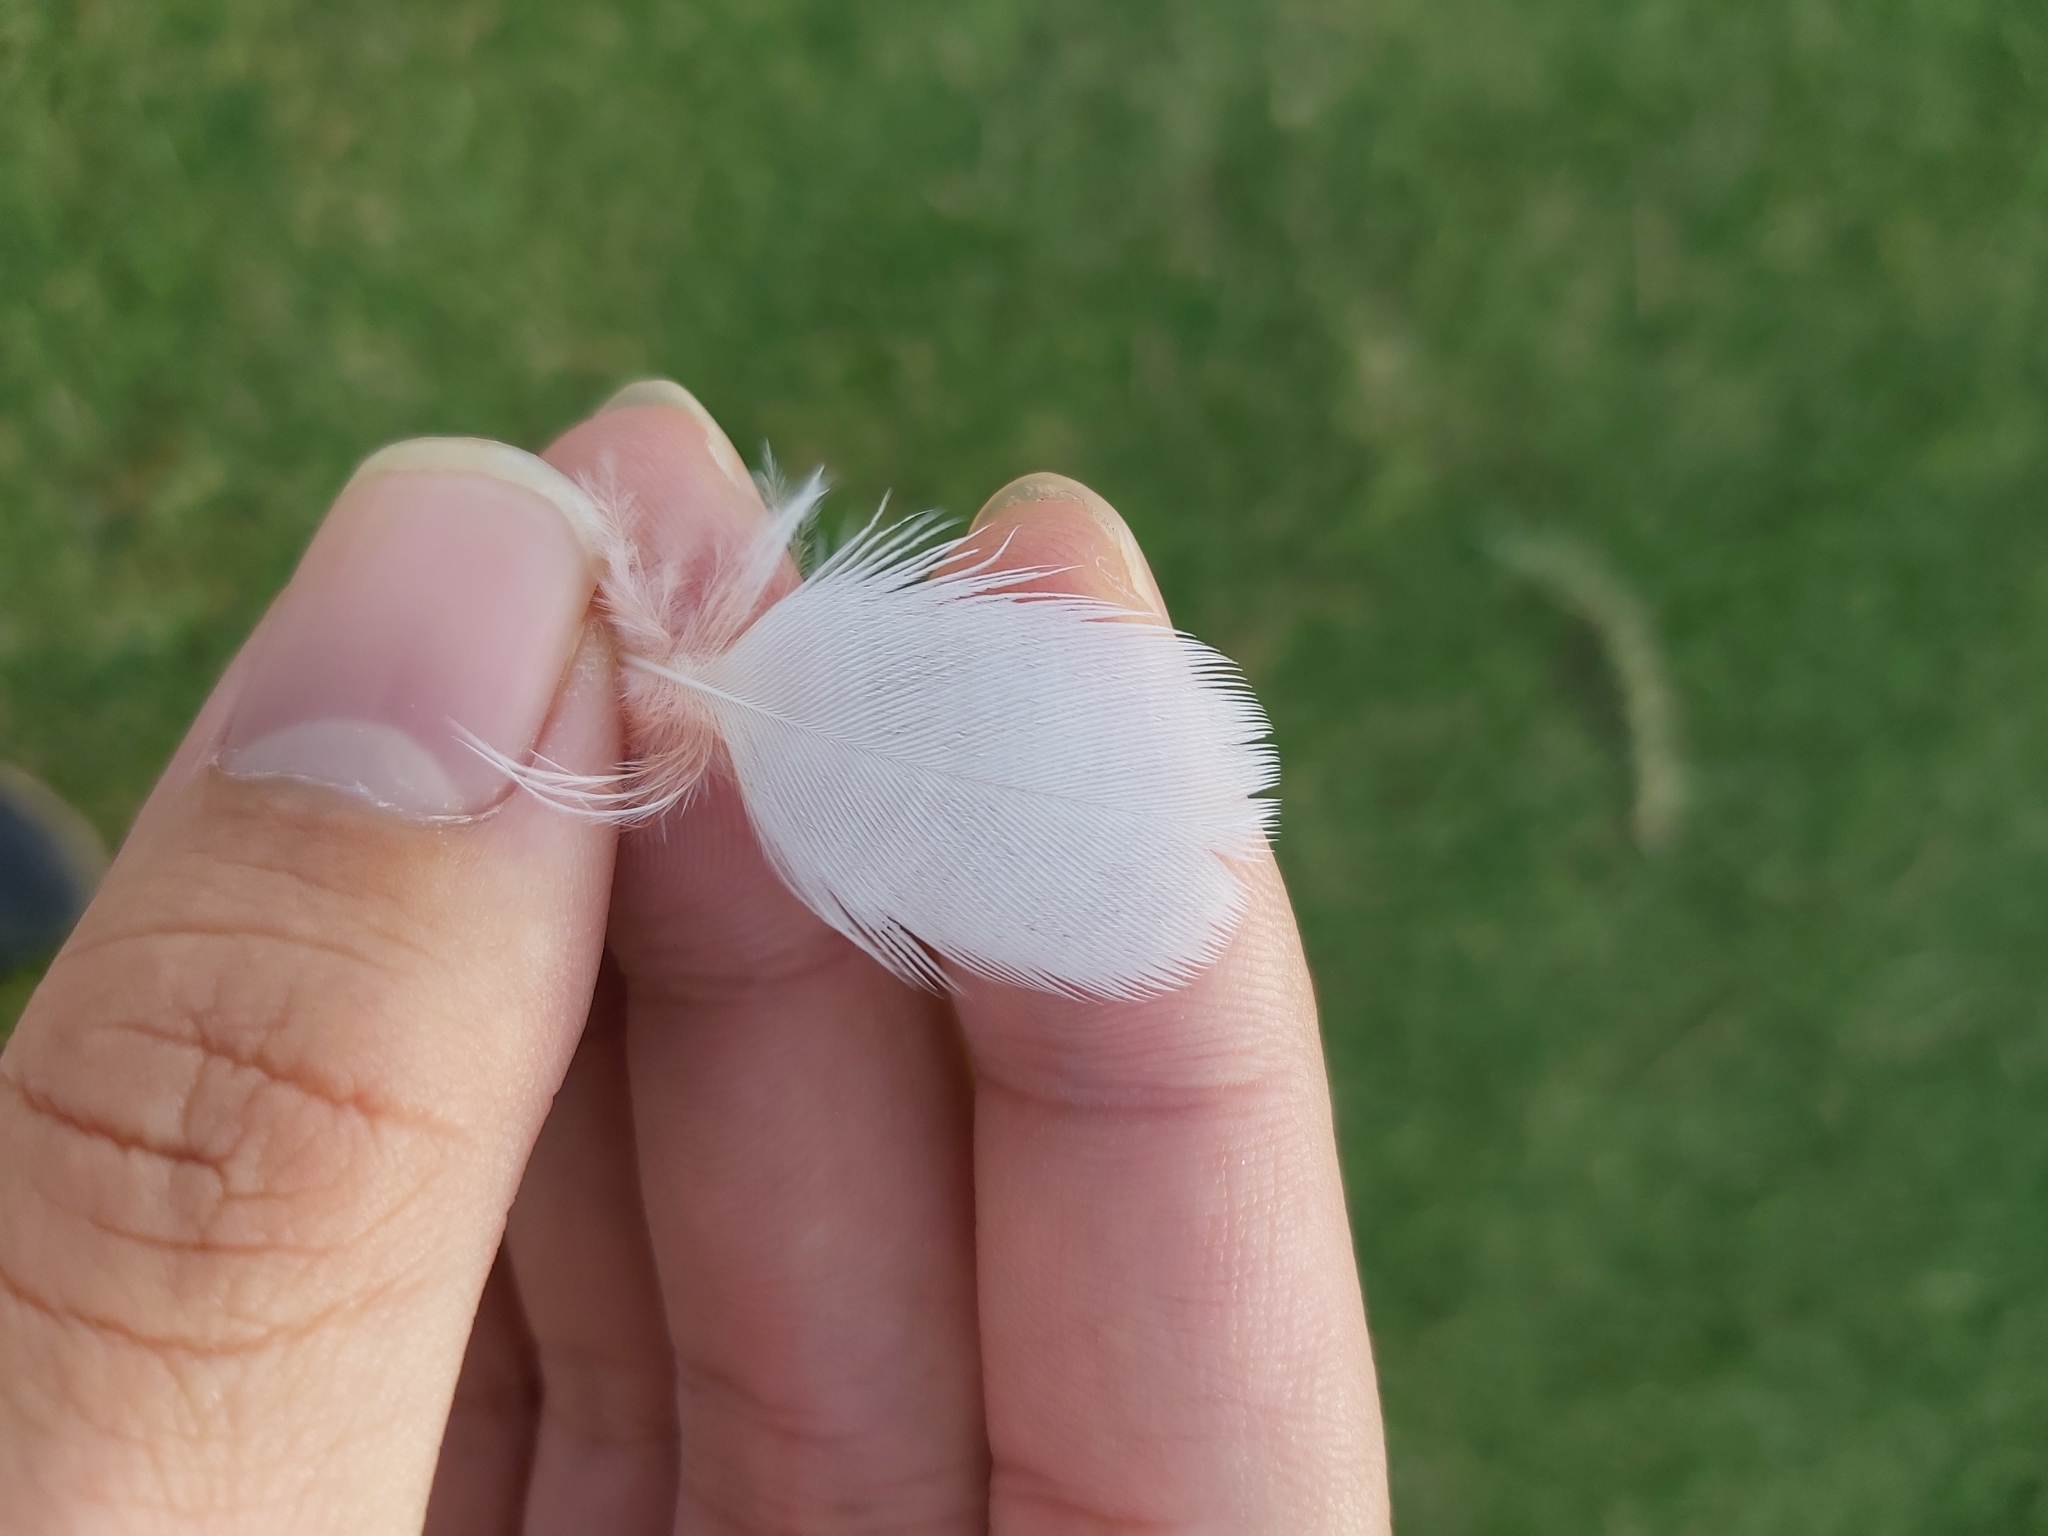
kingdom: Animalia
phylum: Chordata
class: Aves
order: Psittaciformes
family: Psittacidae
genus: Cacatua
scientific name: Cacatua galerita
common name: Sulphur-crested cockatoo
